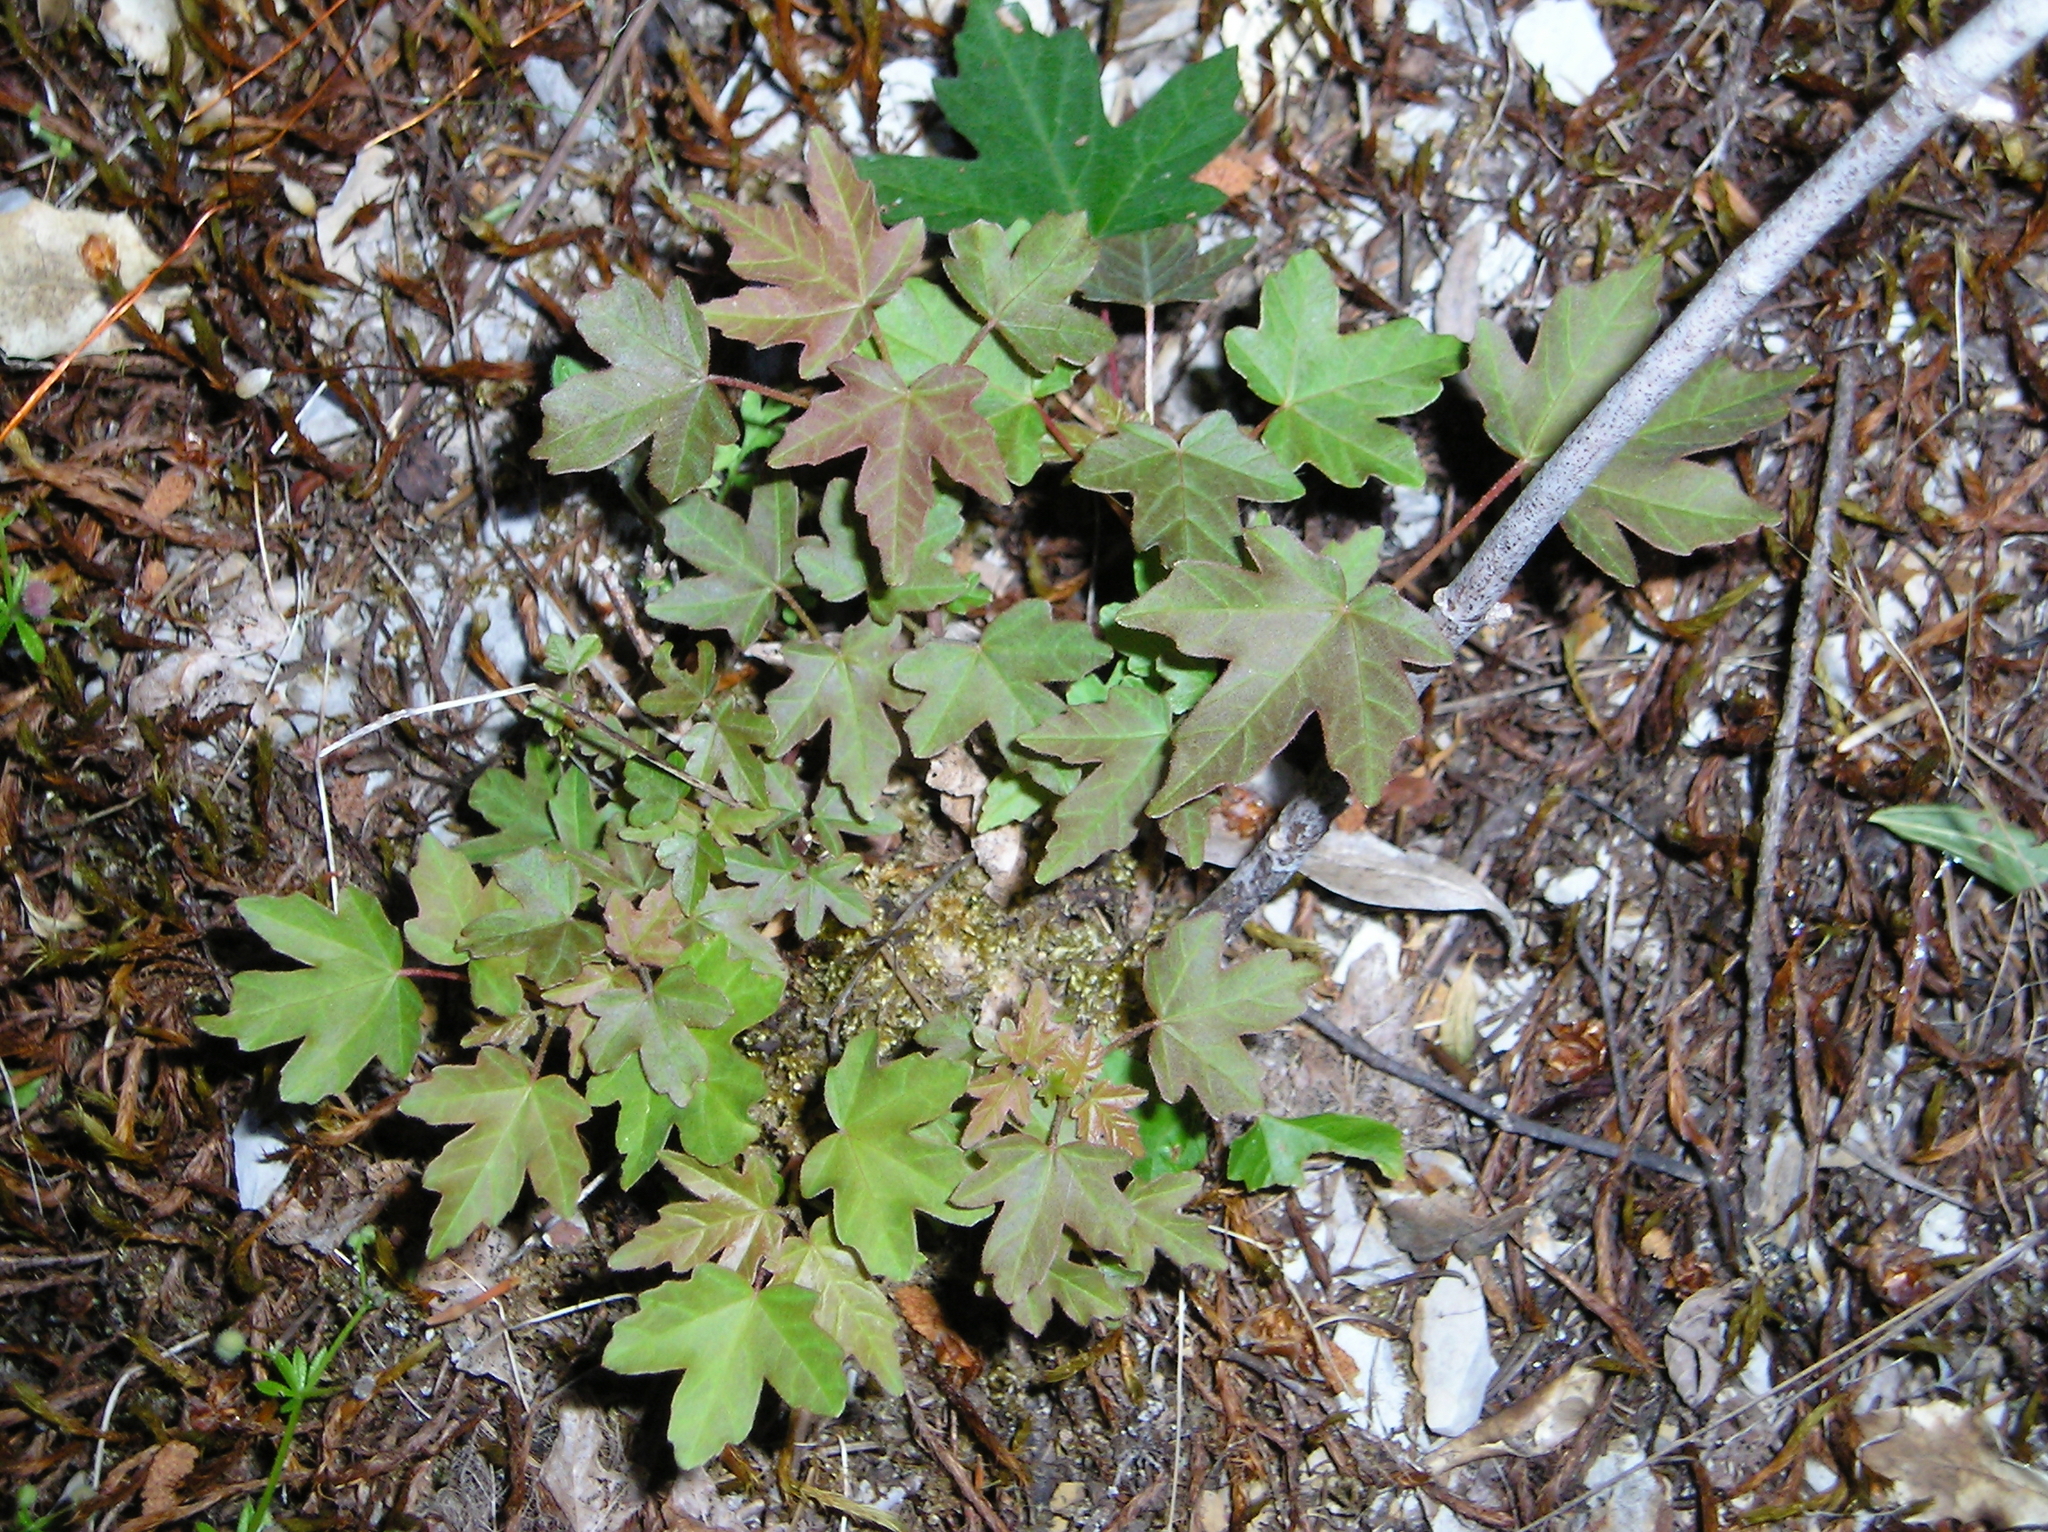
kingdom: Plantae
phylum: Tracheophyta
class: Magnoliopsida
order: Sapindales
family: Sapindaceae
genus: Acer
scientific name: Acer macrophyllum
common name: Oregon maple
